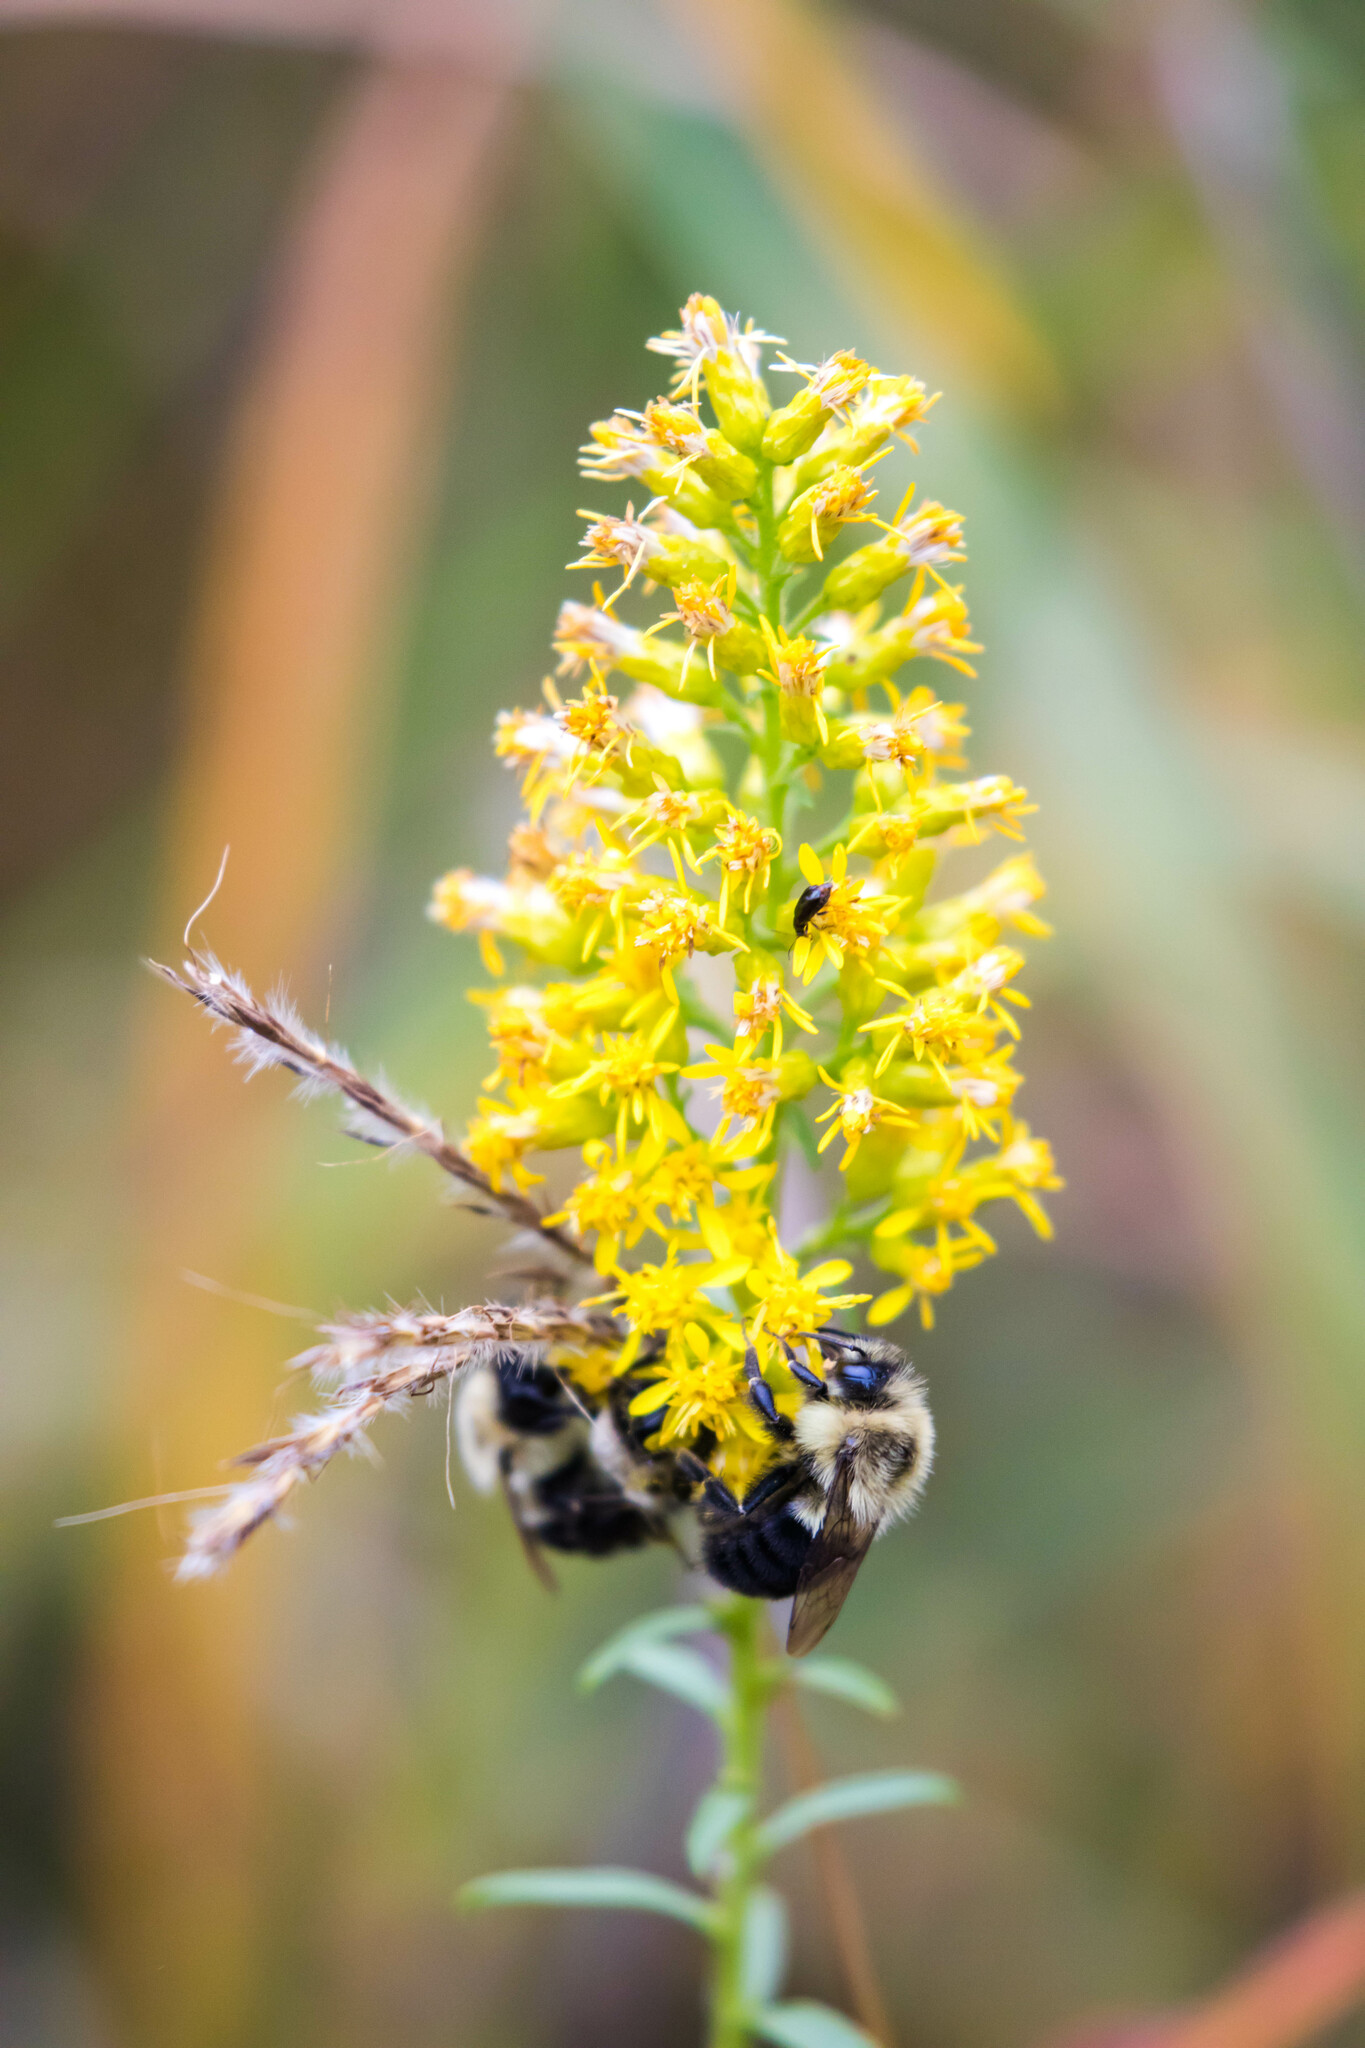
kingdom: Animalia
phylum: Arthropoda
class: Insecta
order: Hymenoptera
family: Apidae
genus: Bombus
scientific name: Bombus impatiens
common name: Common eastern bumble bee
